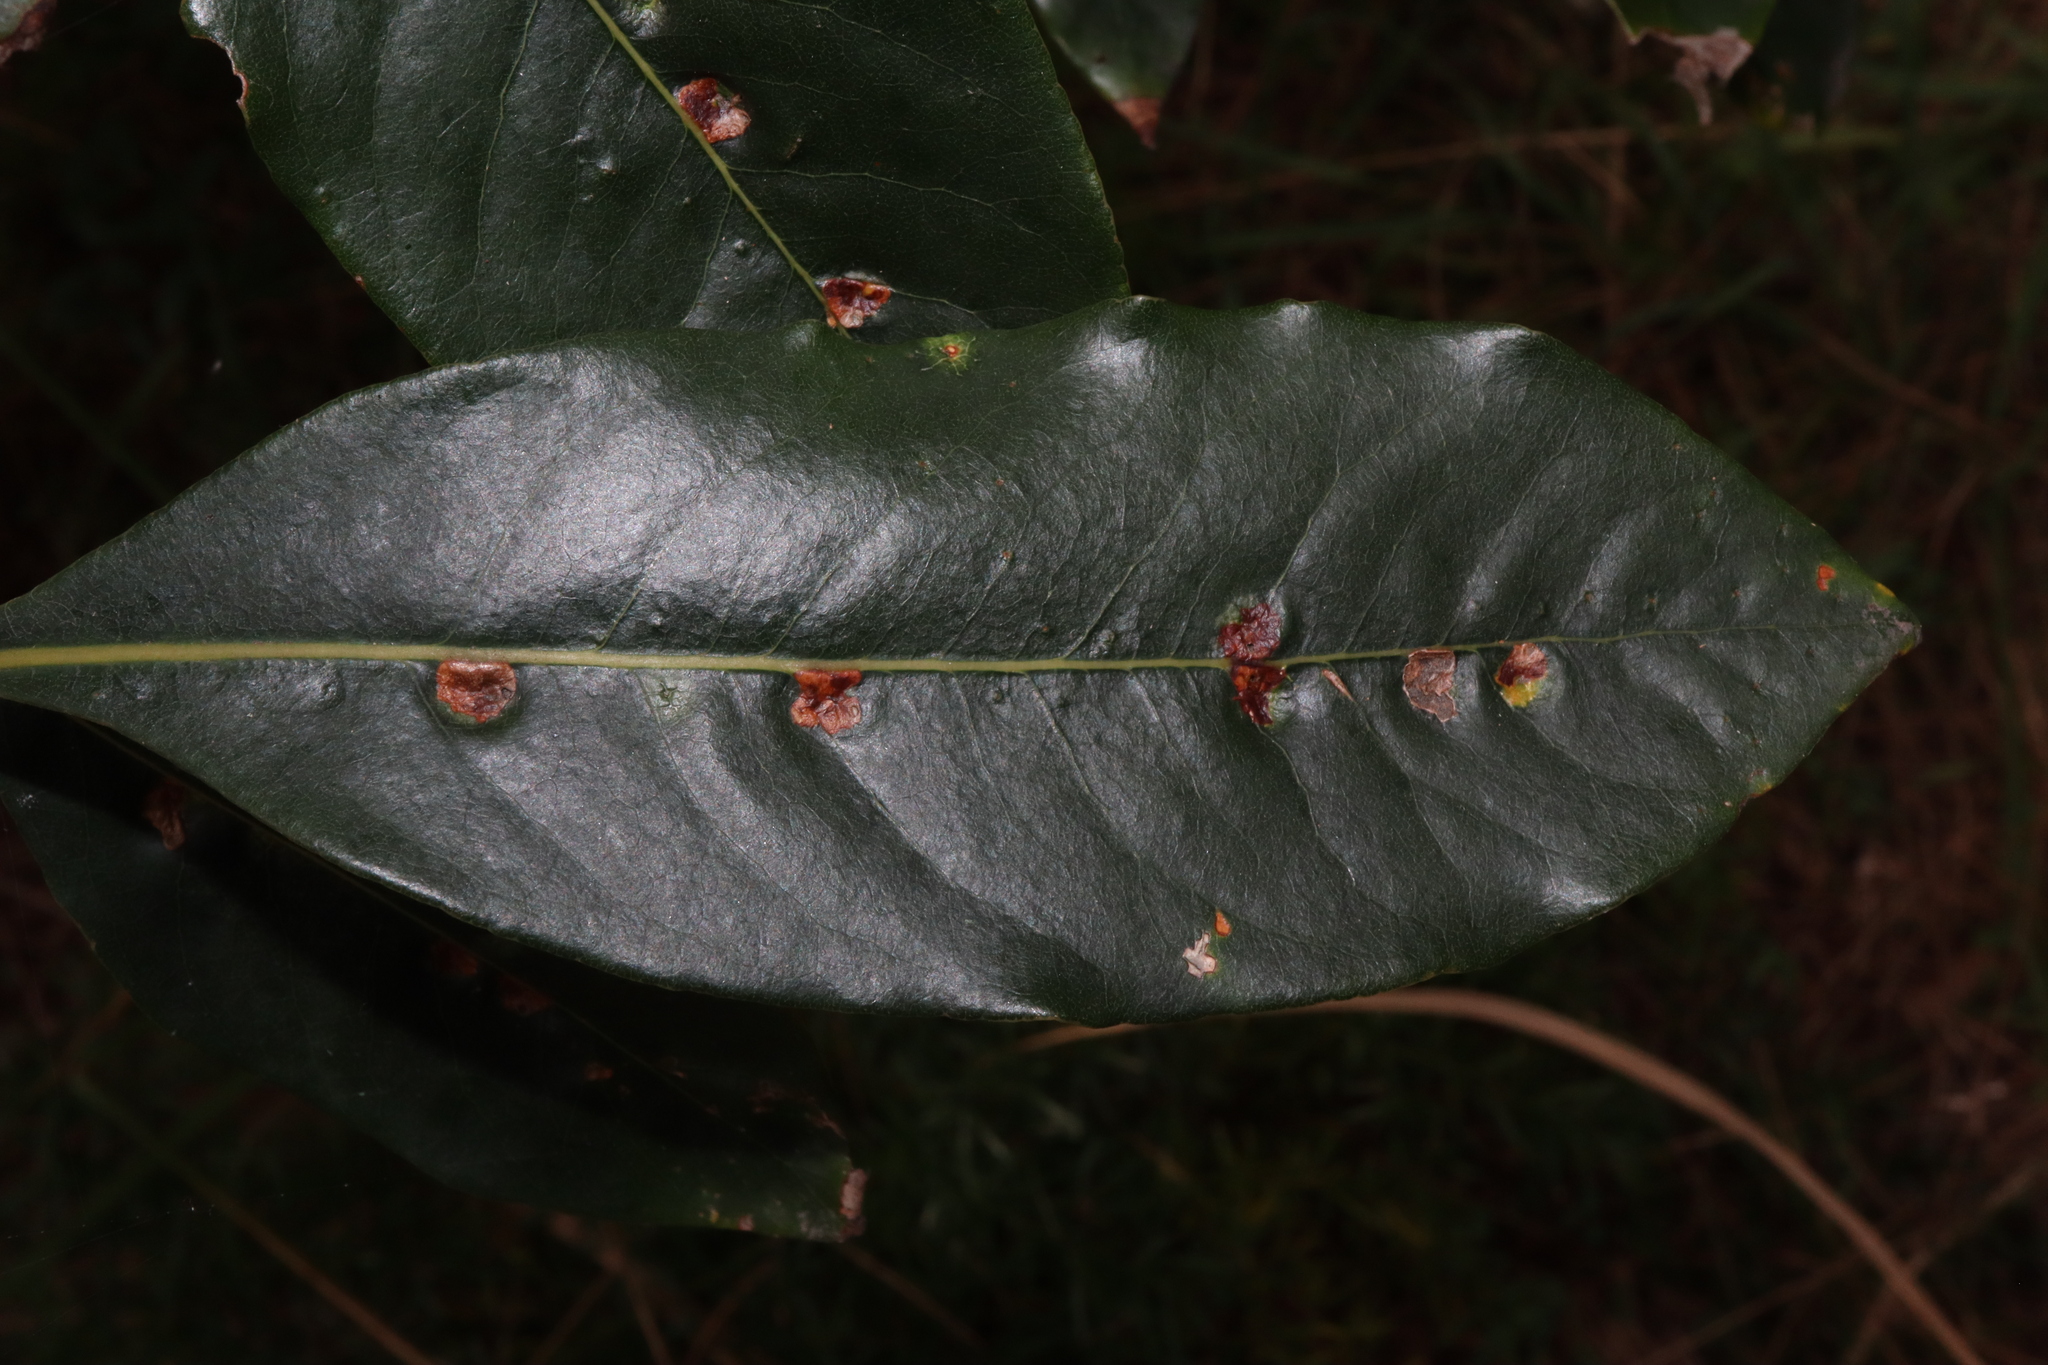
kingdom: Animalia
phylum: Arthropoda
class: Insecta
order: Diptera
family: Agromyzidae
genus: Phytoliriomyza
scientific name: Phytoliriomyza pittosporophylli
